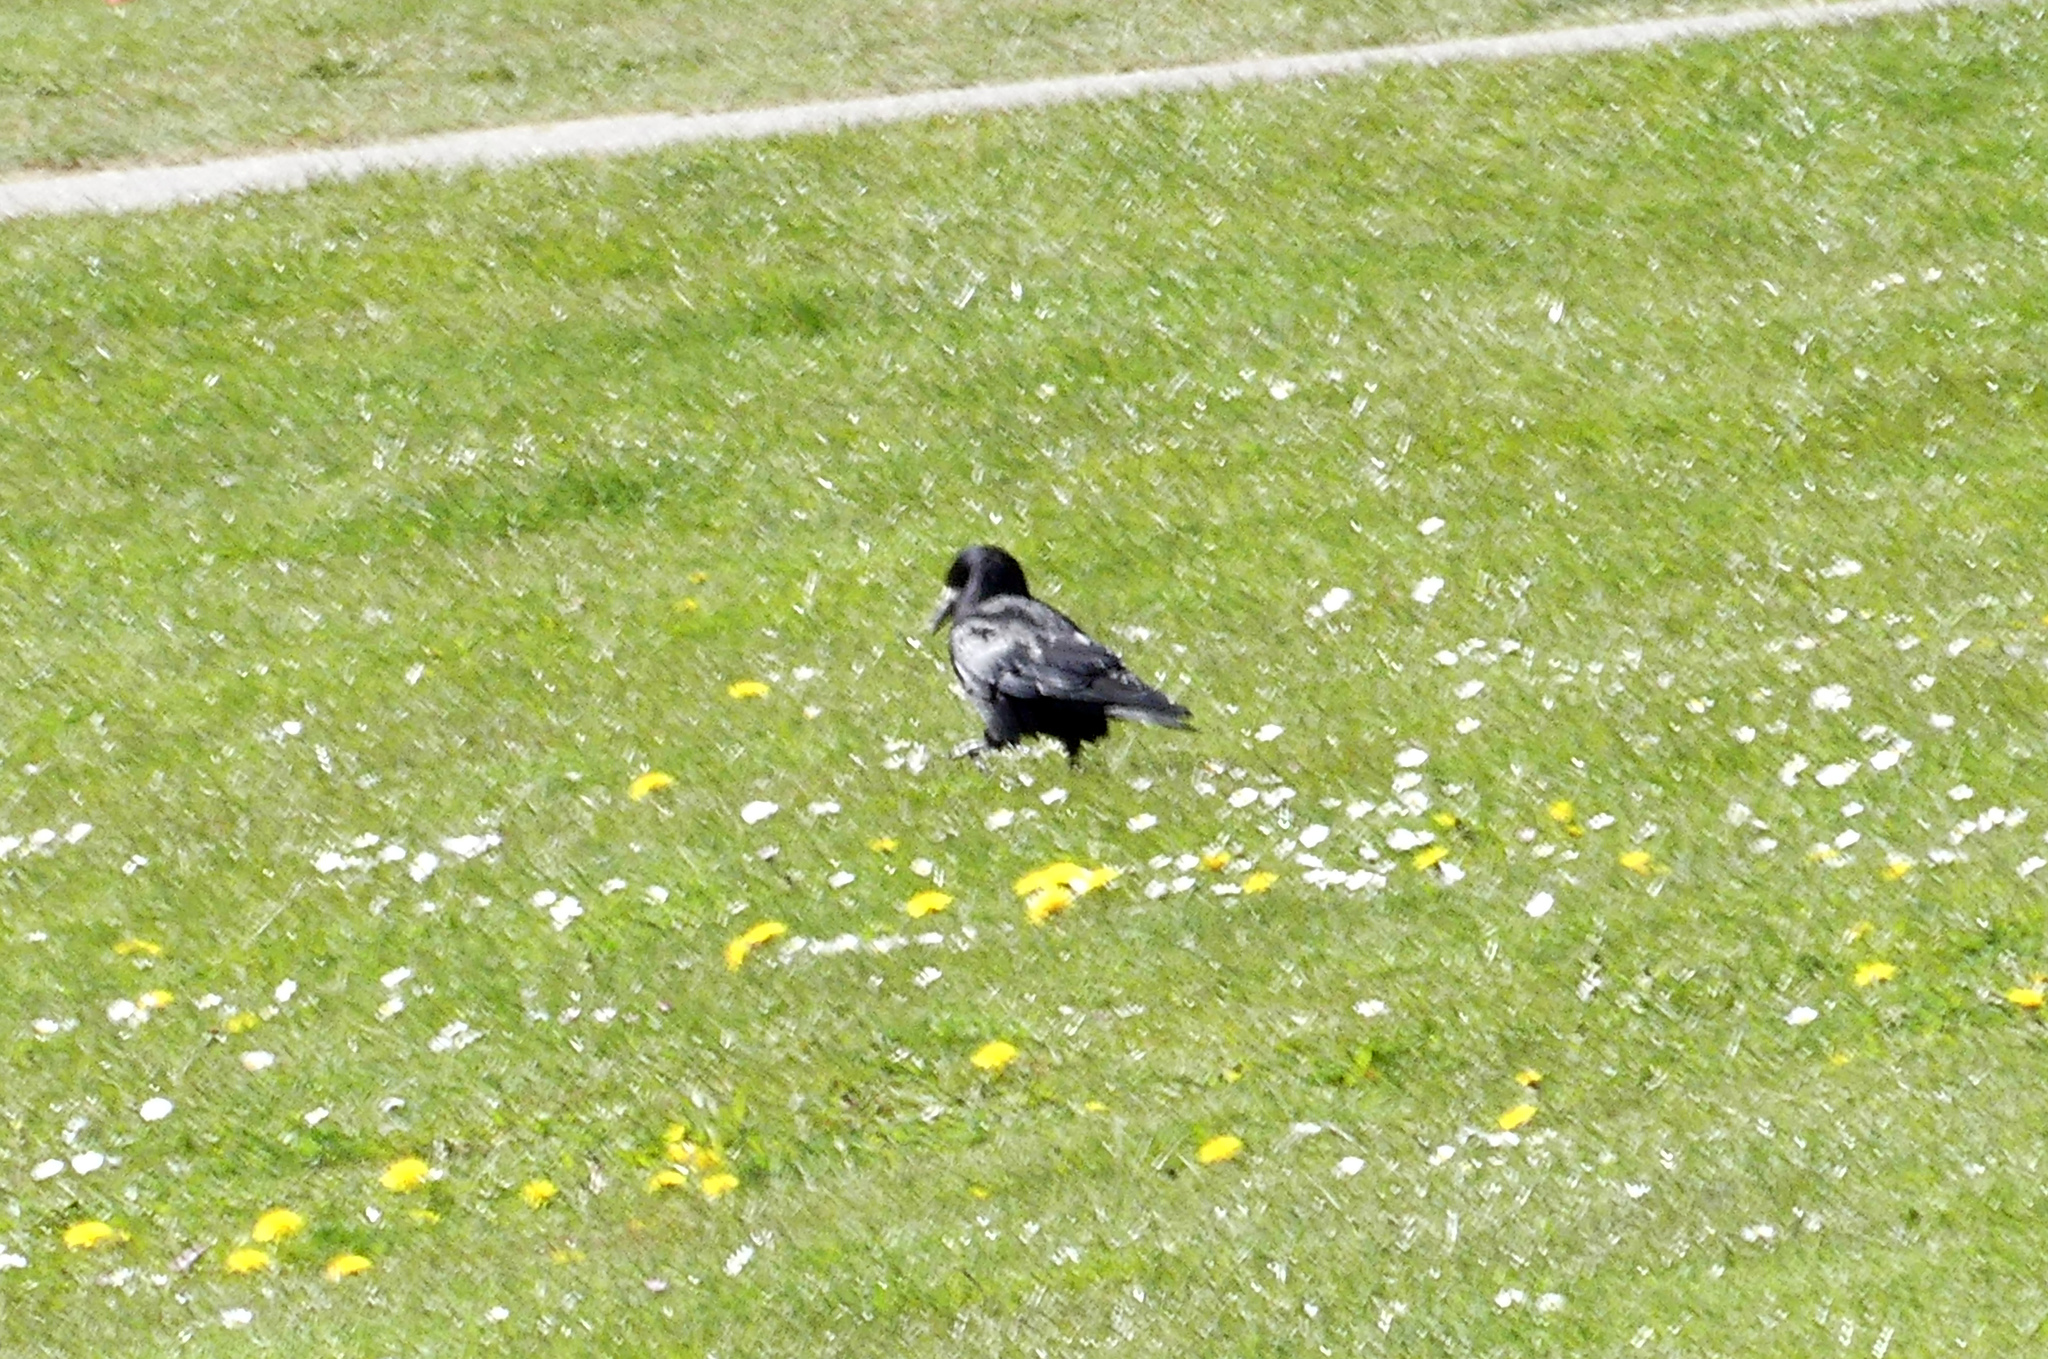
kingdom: Animalia
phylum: Chordata
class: Aves
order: Passeriformes
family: Corvidae
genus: Corvus
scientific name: Corvus frugilegus
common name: Rook
